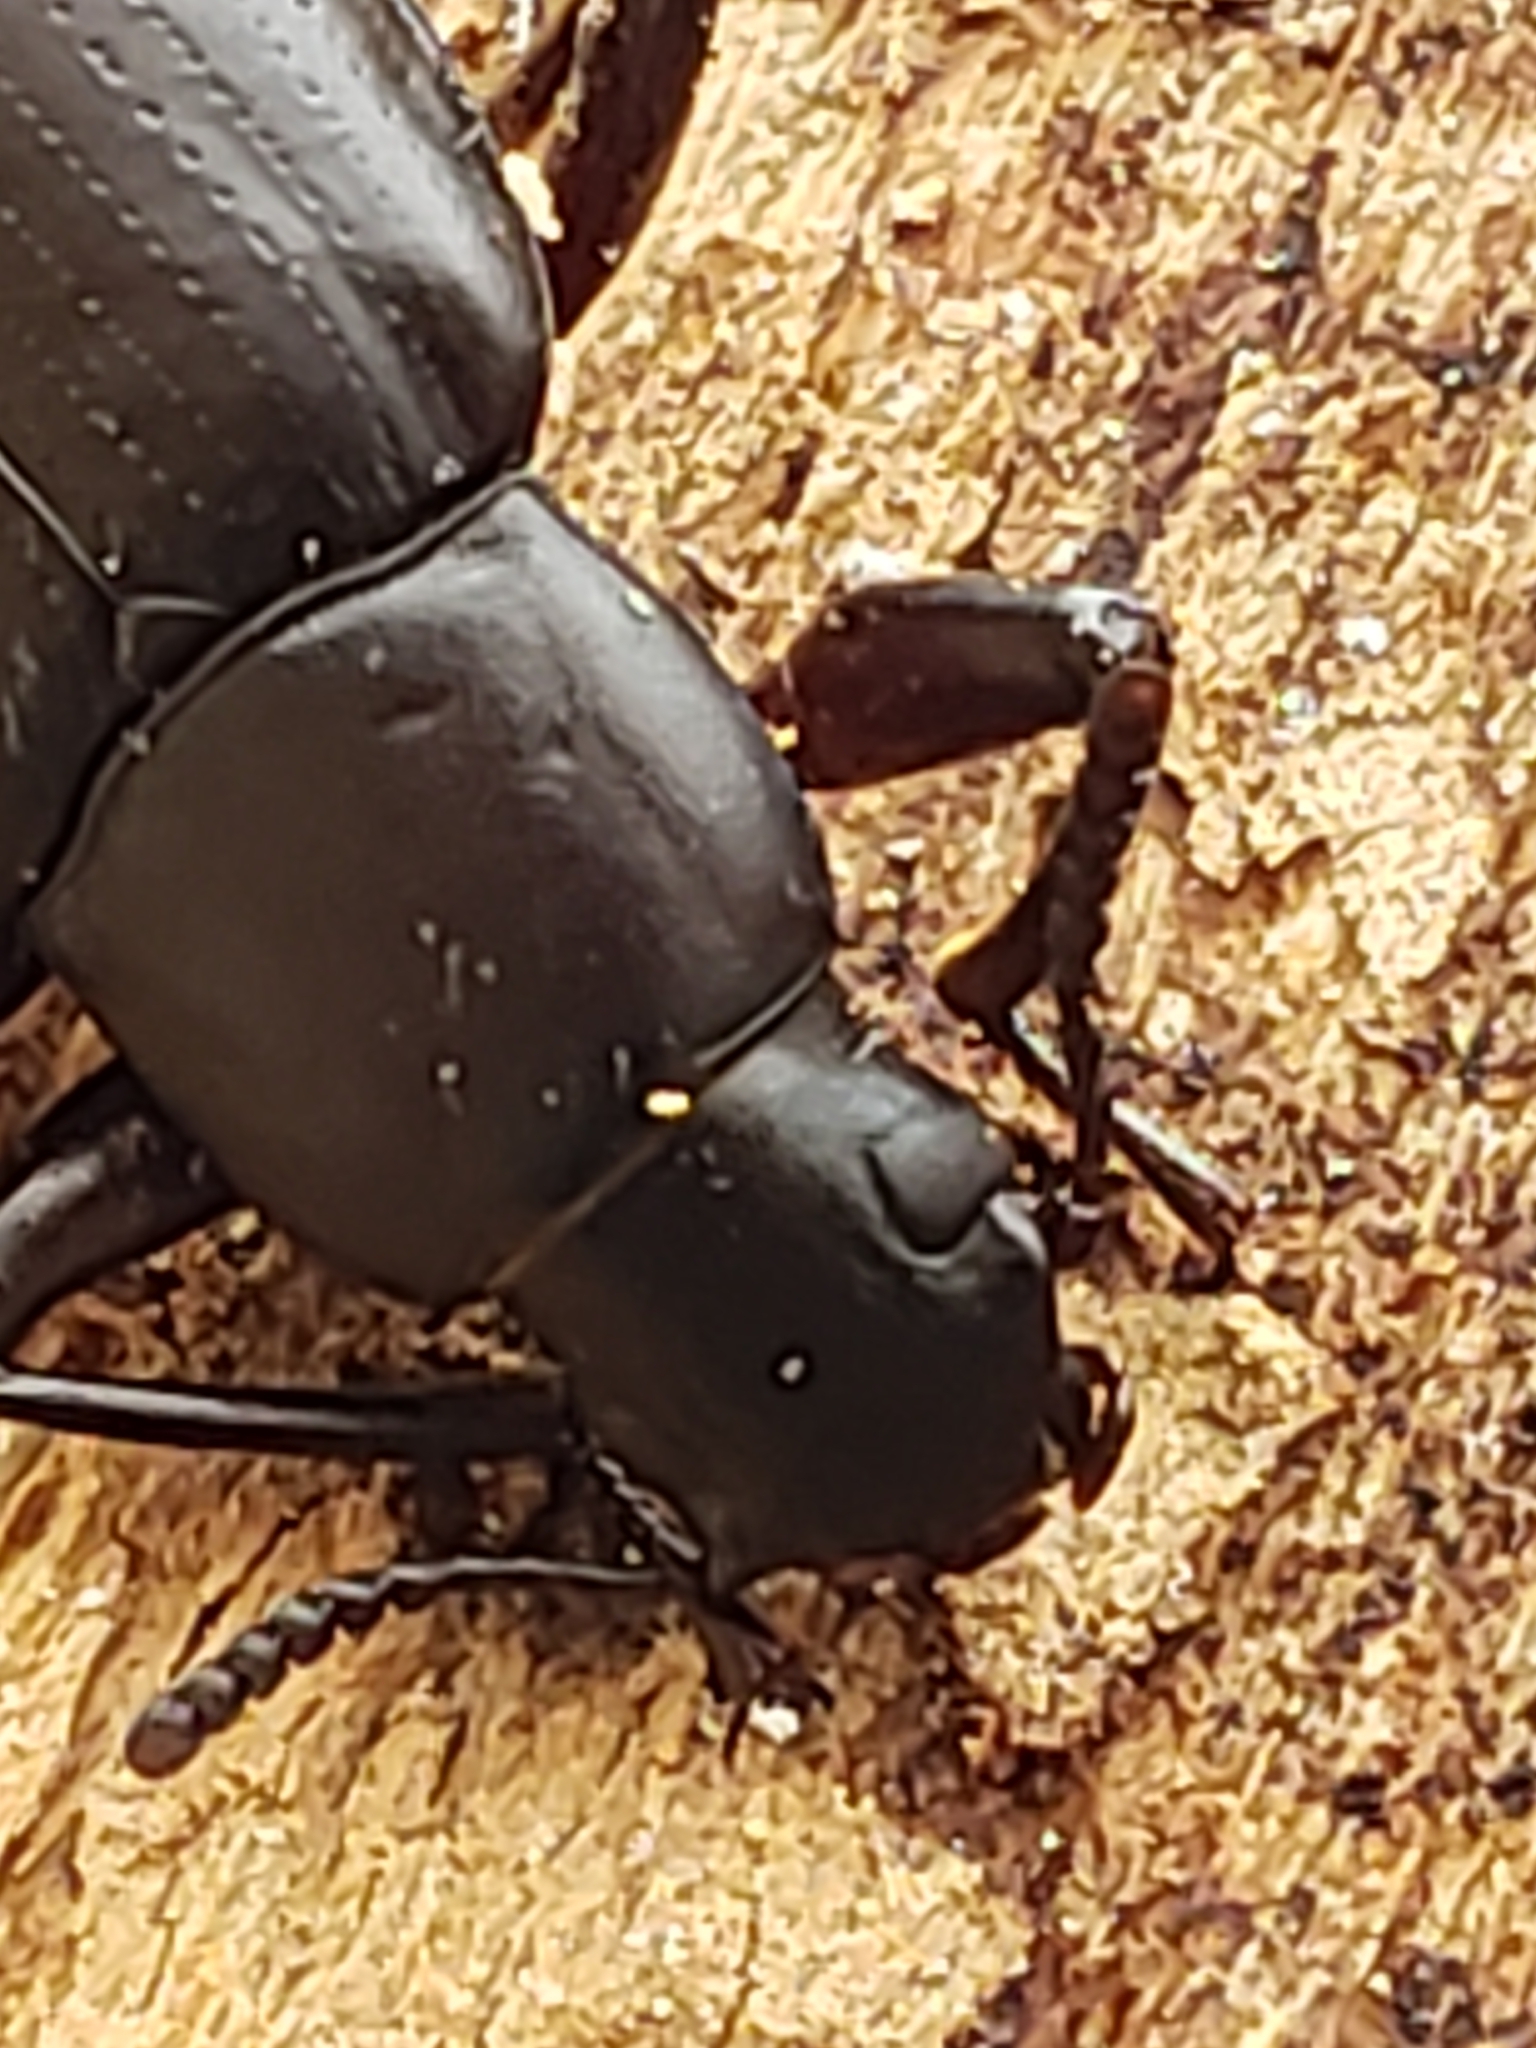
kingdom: Animalia
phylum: Arthropoda
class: Insecta
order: Coleoptera
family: Tenebrionidae
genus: Alobates
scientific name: Alobates pensylvanicus
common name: False mealworm beetle
